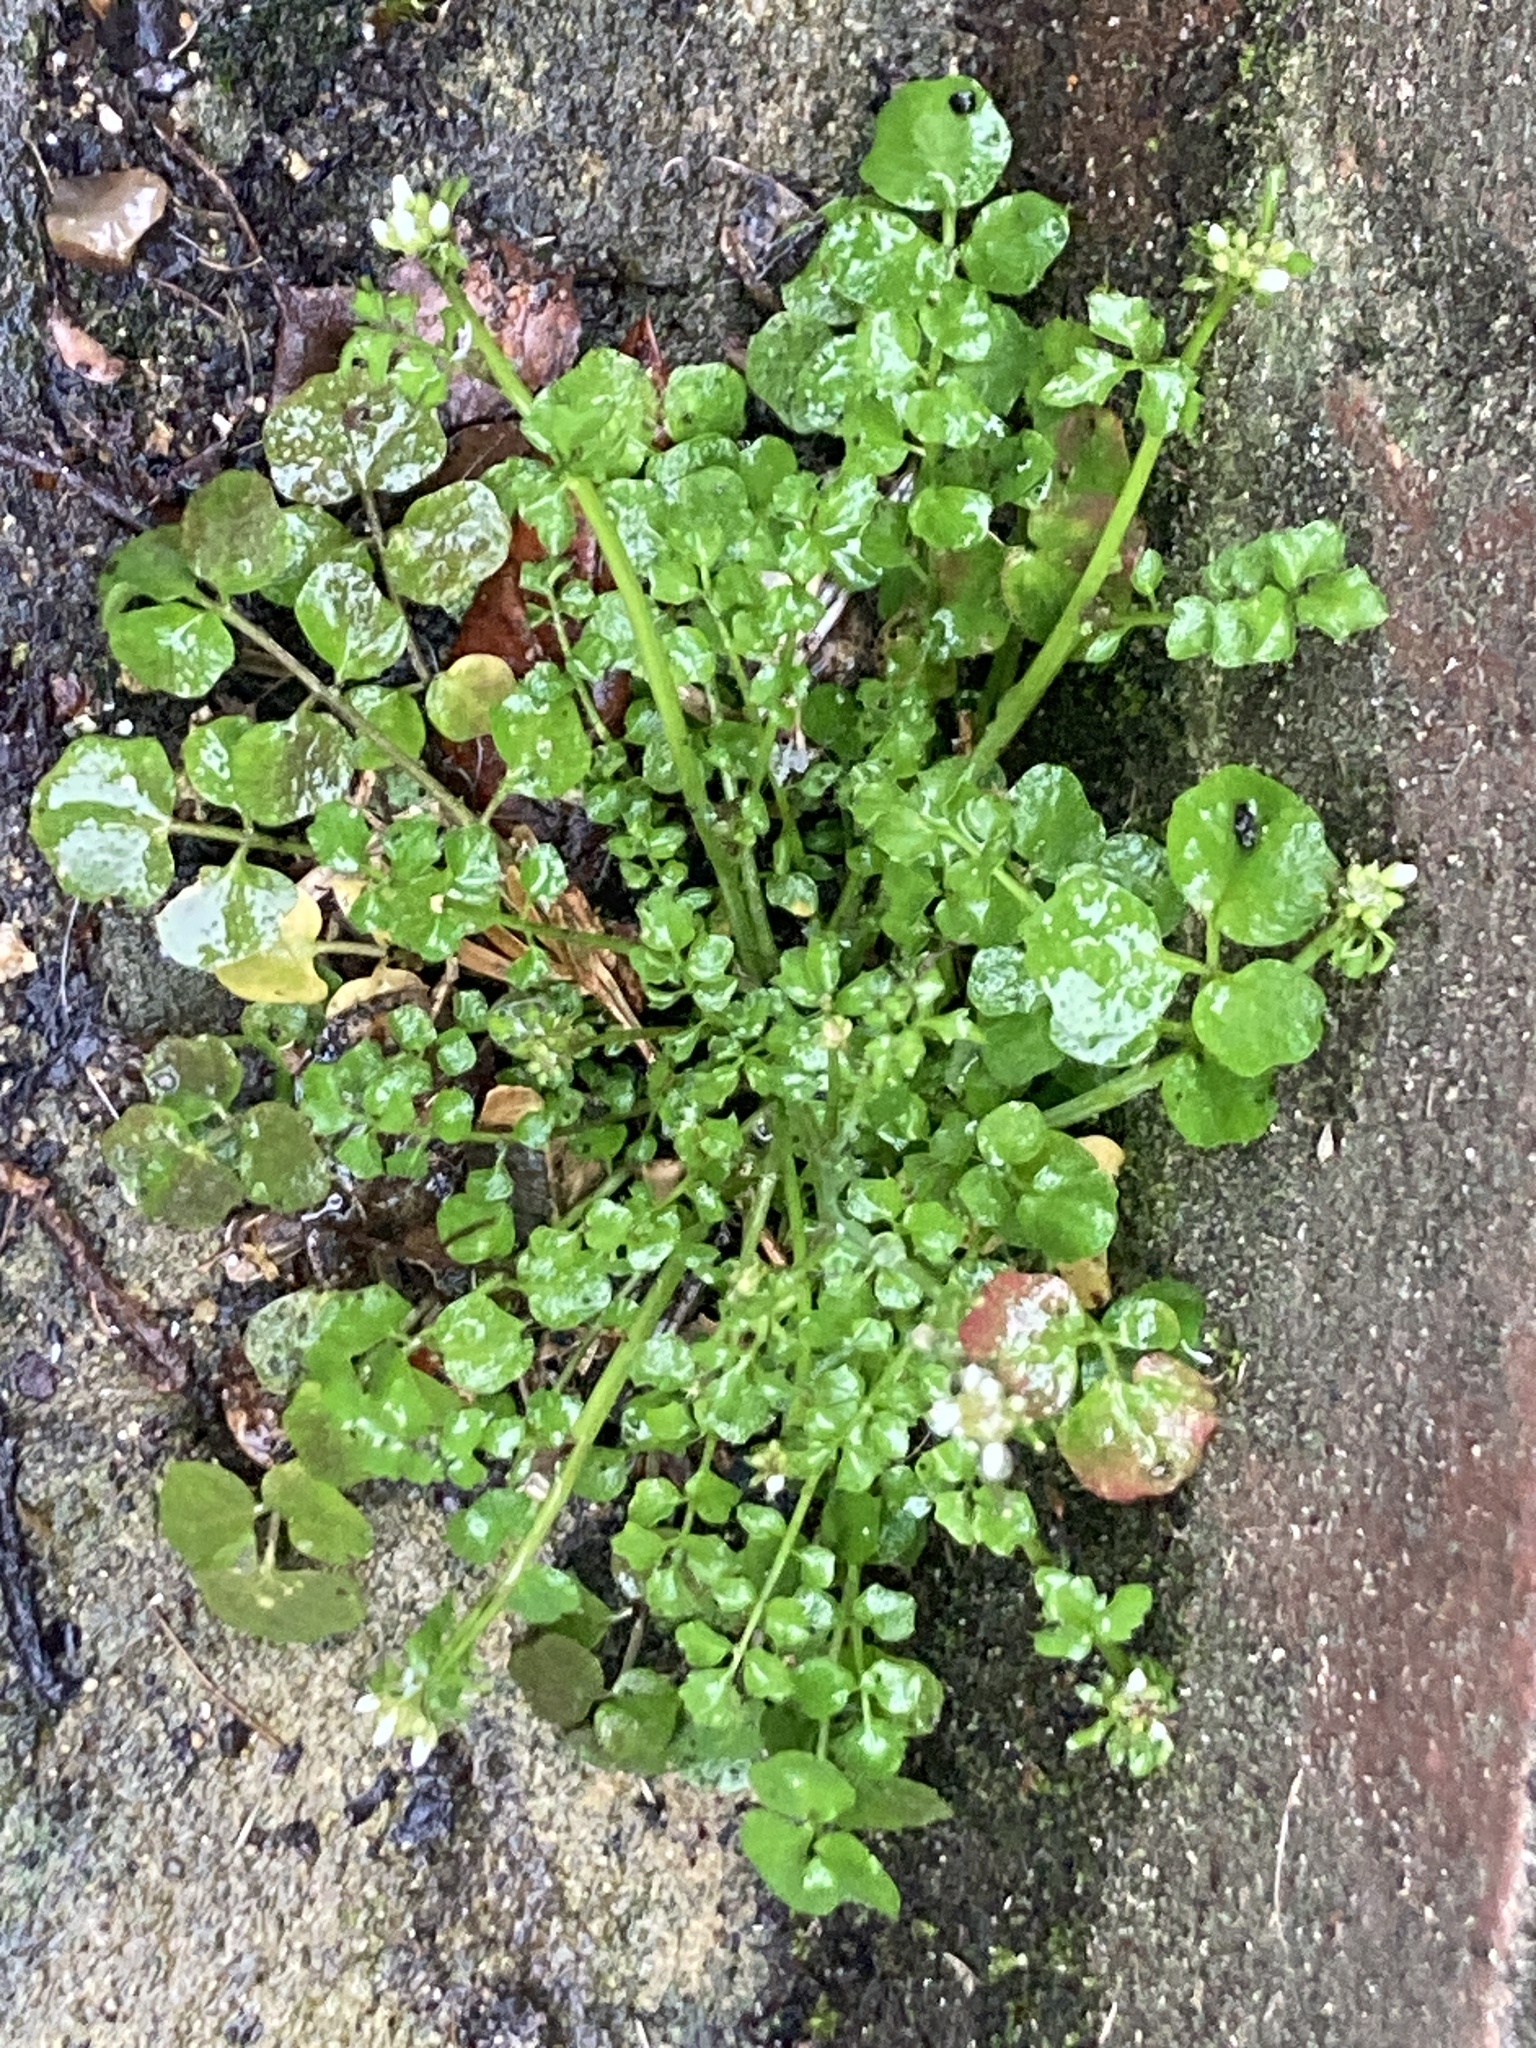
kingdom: Plantae
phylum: Tracheophyta
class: Magnoliopsida
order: Brassicales
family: Brassicaceae
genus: Cardamine
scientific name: Cardamine hirsuta
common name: Hairy bittercress
